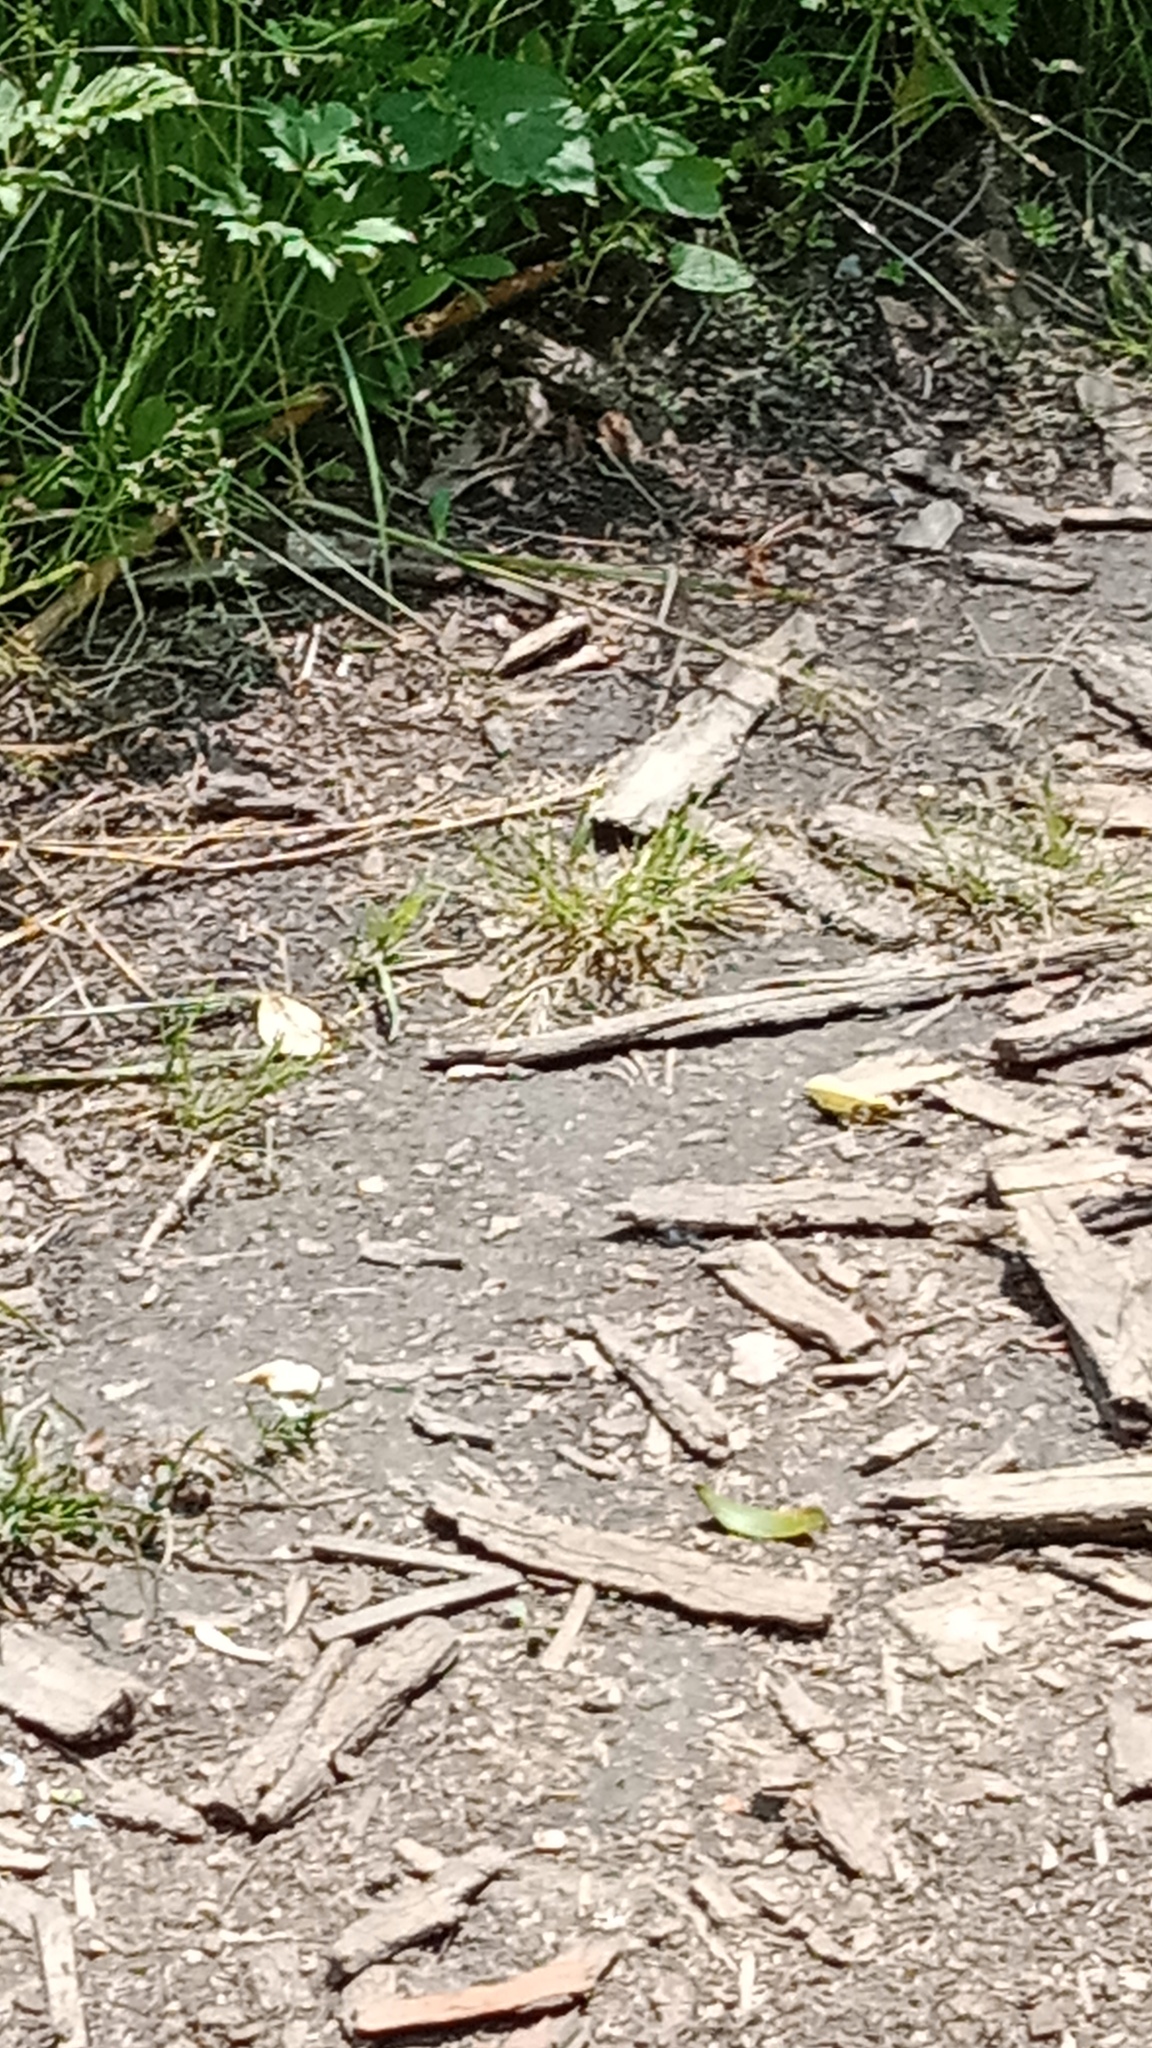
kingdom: Animalia
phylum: Arthropoda
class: Insecta
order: Lepidoptera
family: Nymphalidae
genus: Neptis
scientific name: Neptis sappho
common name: Common glider
